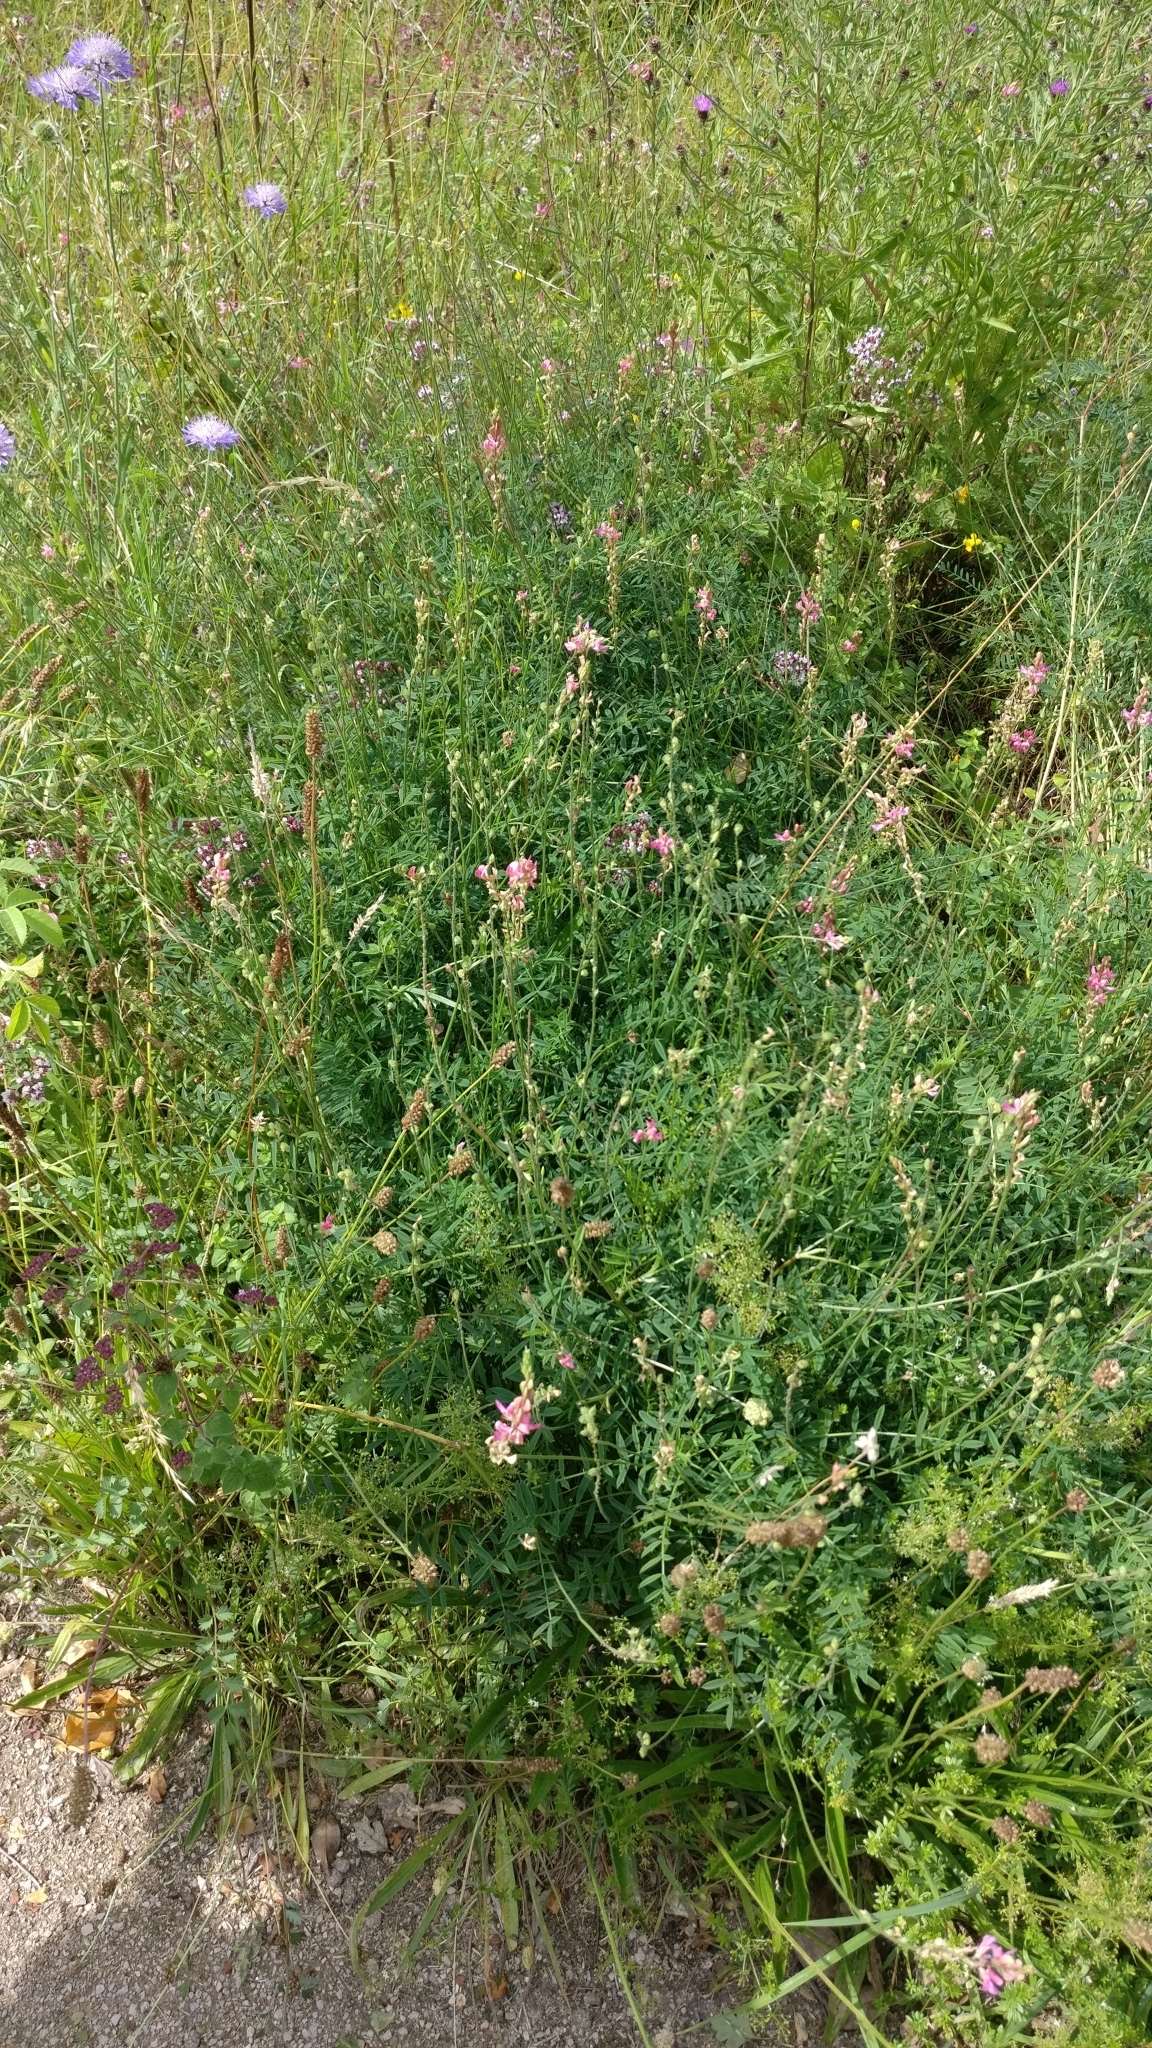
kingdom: Plantae
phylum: Tracheophyta
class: Magnoliopsida
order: Fabales
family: Fabaceae
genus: Onobrychis
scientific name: Onobrychis viciifolia
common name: Sainfoin
